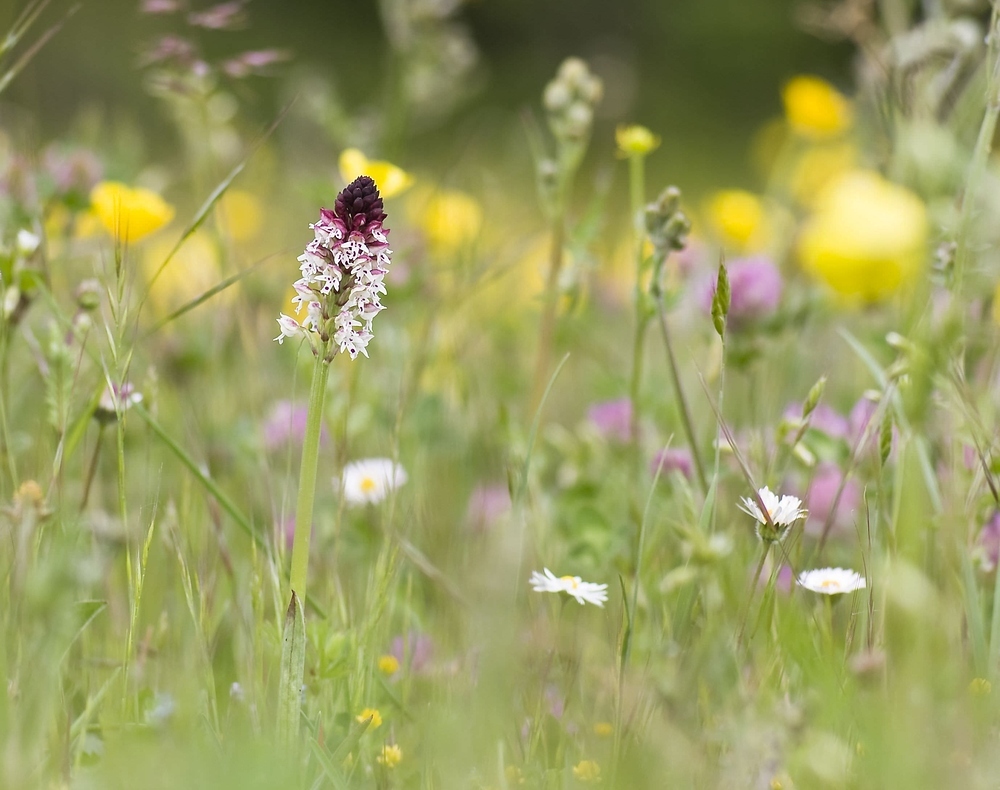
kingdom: Plantae
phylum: Tracheophyta
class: Liliopsida
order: Asparagales
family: Orchidaceae
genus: Neotinea
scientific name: Neotinea ustulata
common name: Burnt orchid
